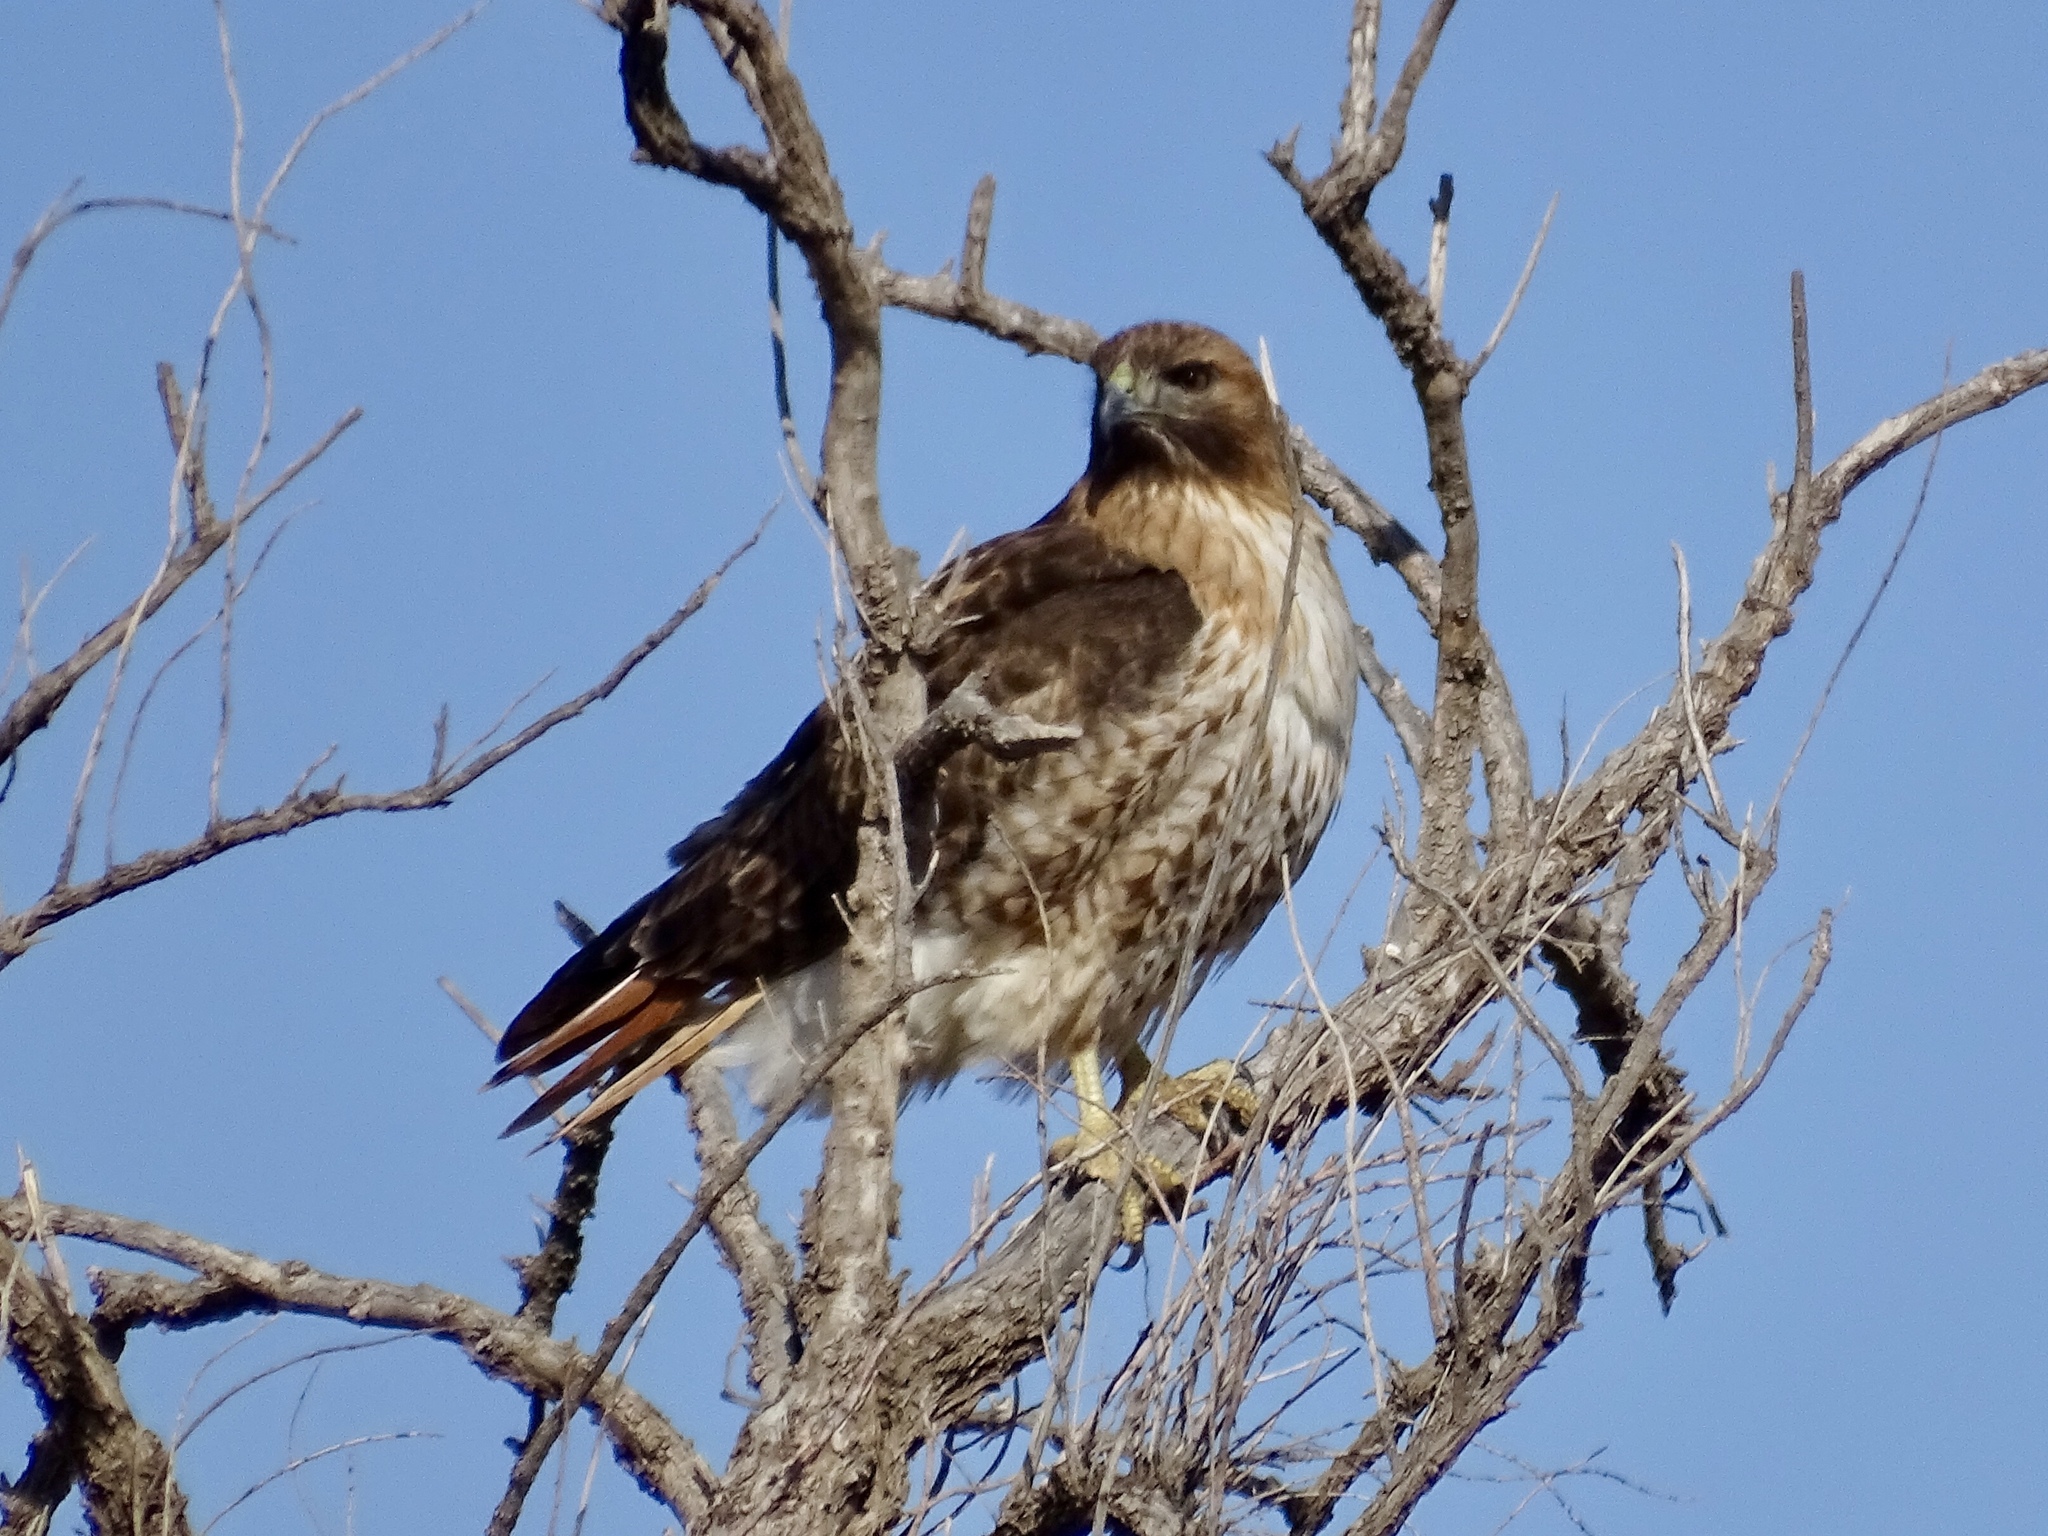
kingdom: Animalia
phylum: Chordata
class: Aves
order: Accipitriformes
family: Accipitridae
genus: Buteo
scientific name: Buteo jamaicensis
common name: Red-tailed hawk
